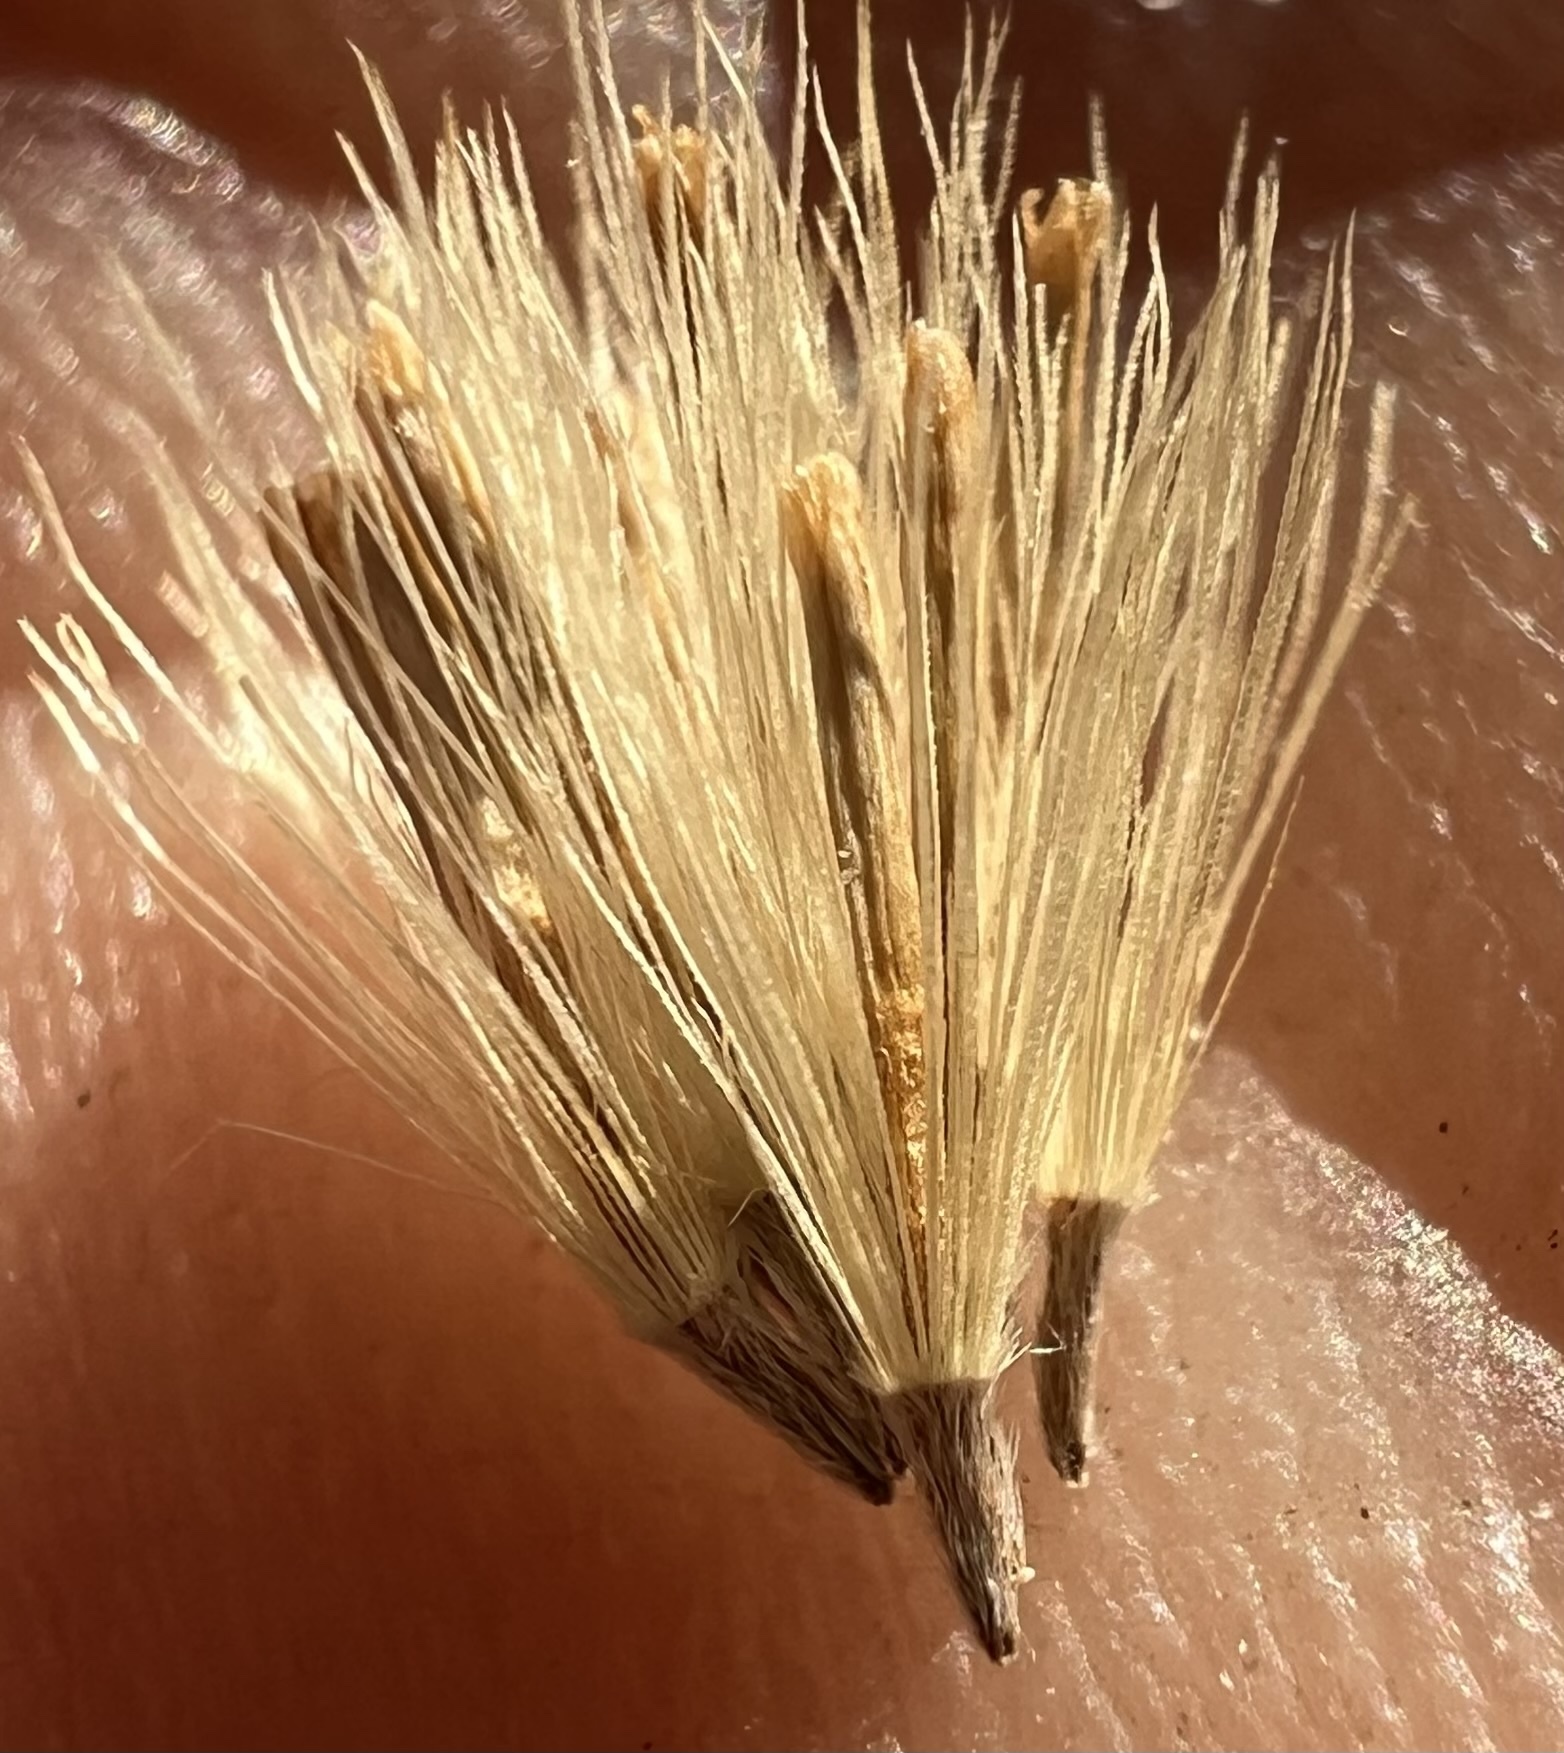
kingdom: Plantae
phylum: Tracheophyta
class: Magnoliopsida
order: Asterales
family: Asteraceae
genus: Leucosyris
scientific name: Leucosyris carnosa
